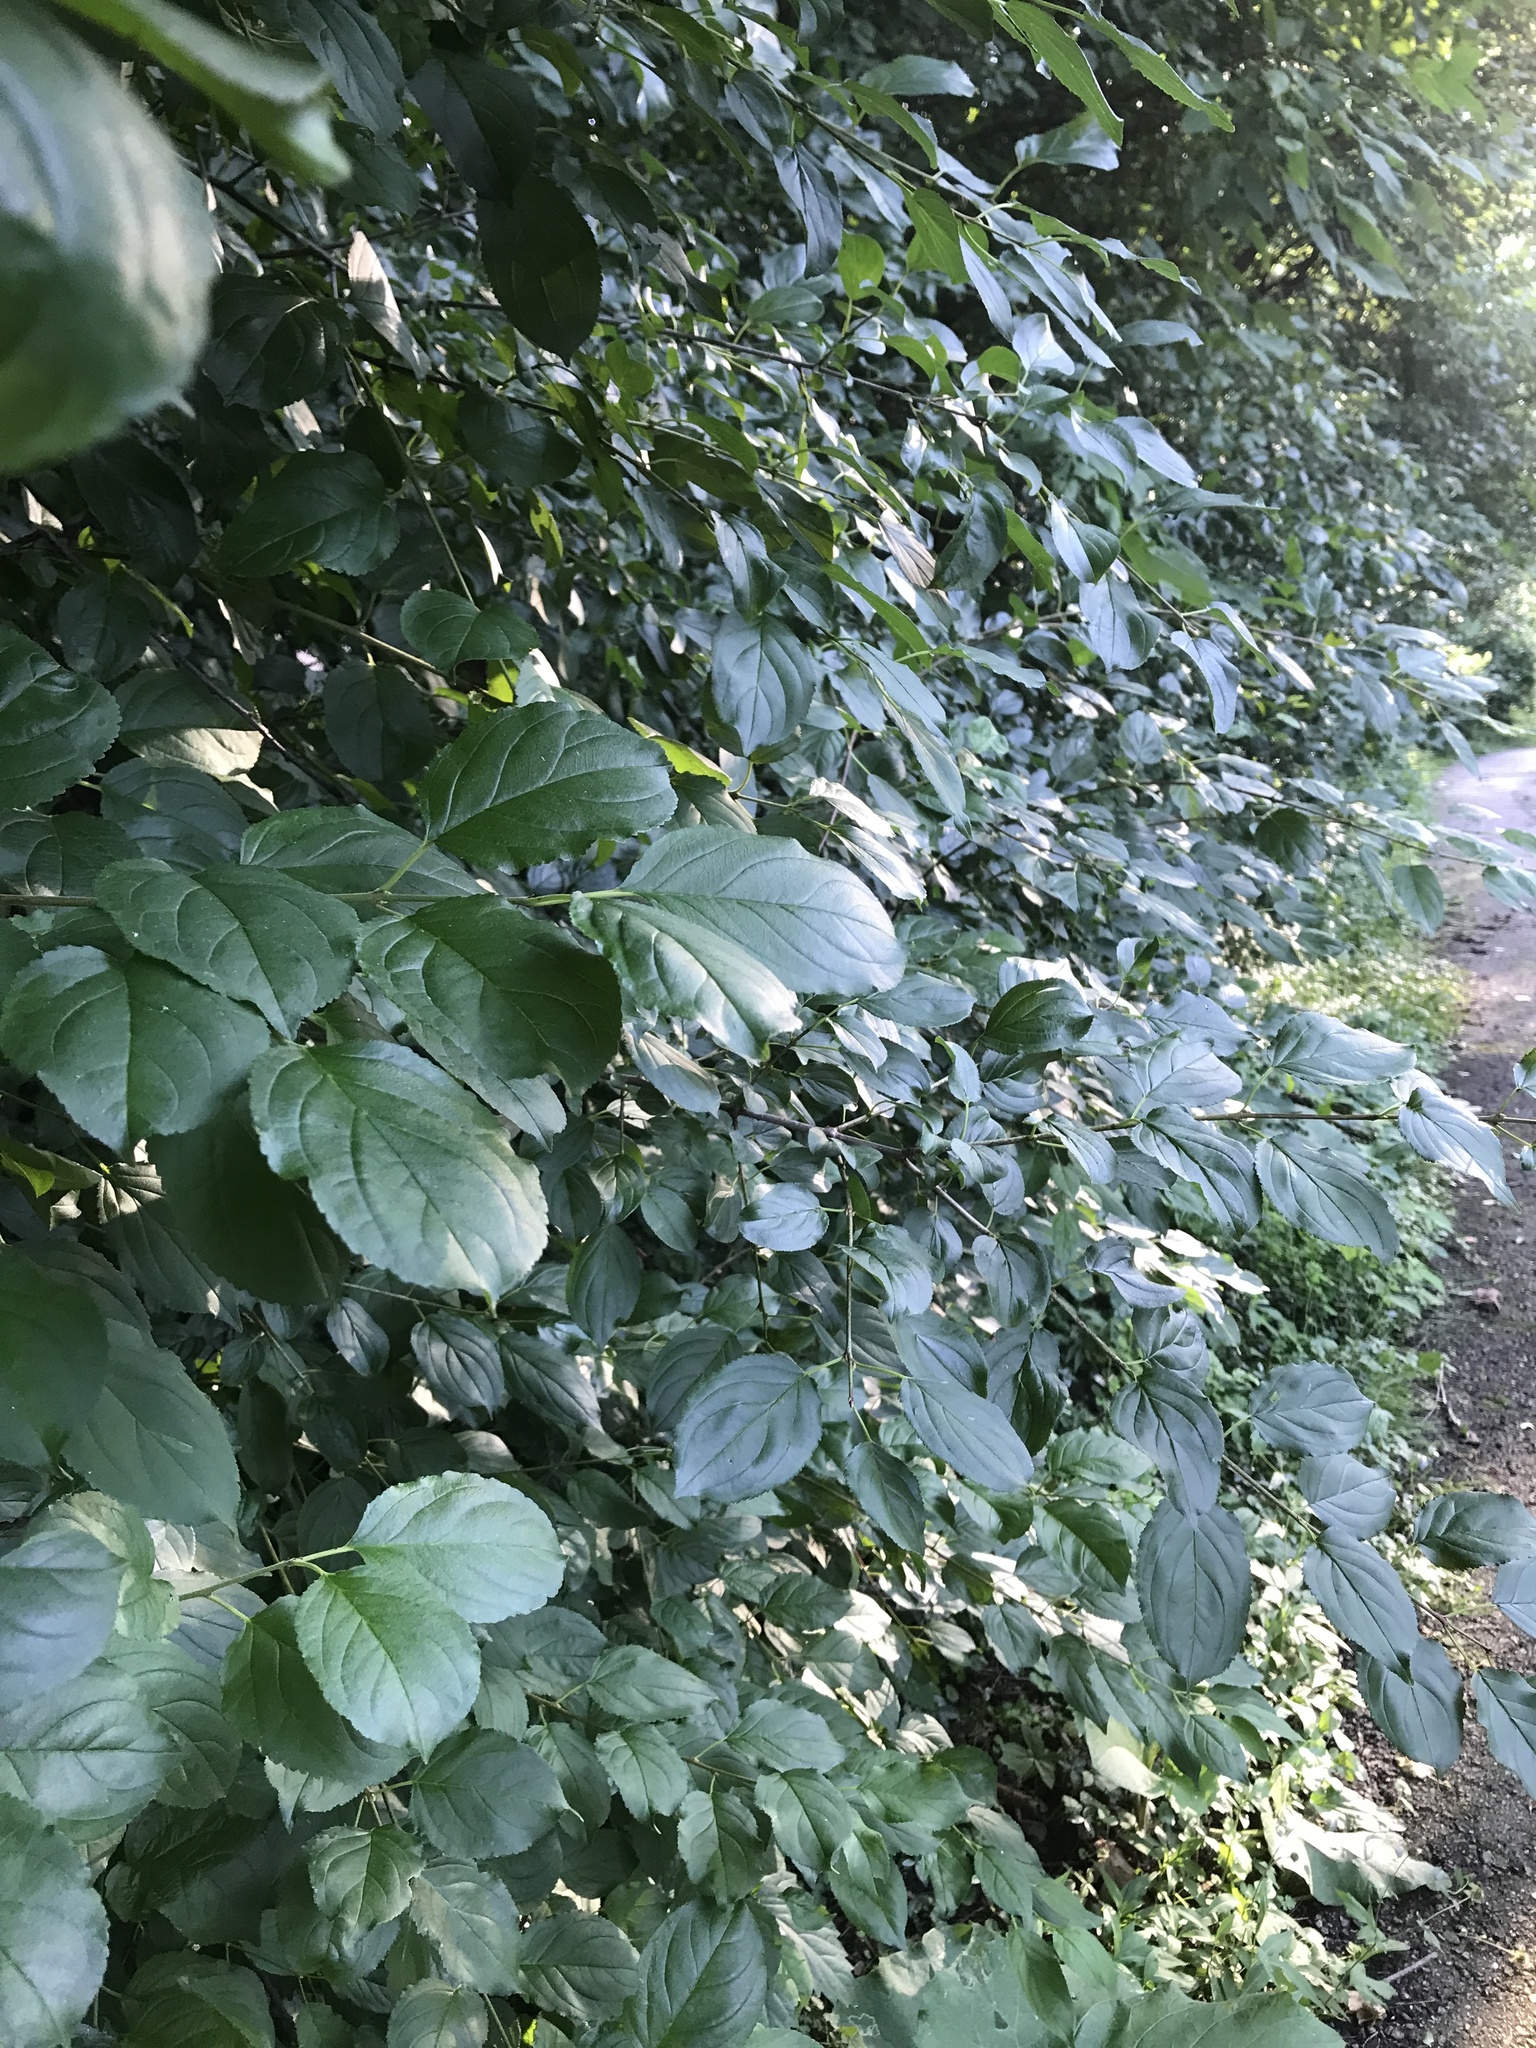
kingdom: Plantae
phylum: Tracheophyta
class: Magnoliopsida
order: Rosales
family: Rhamnaceae
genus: Rhamnus
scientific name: Rhamnus cathartica
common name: Common buckthorn
